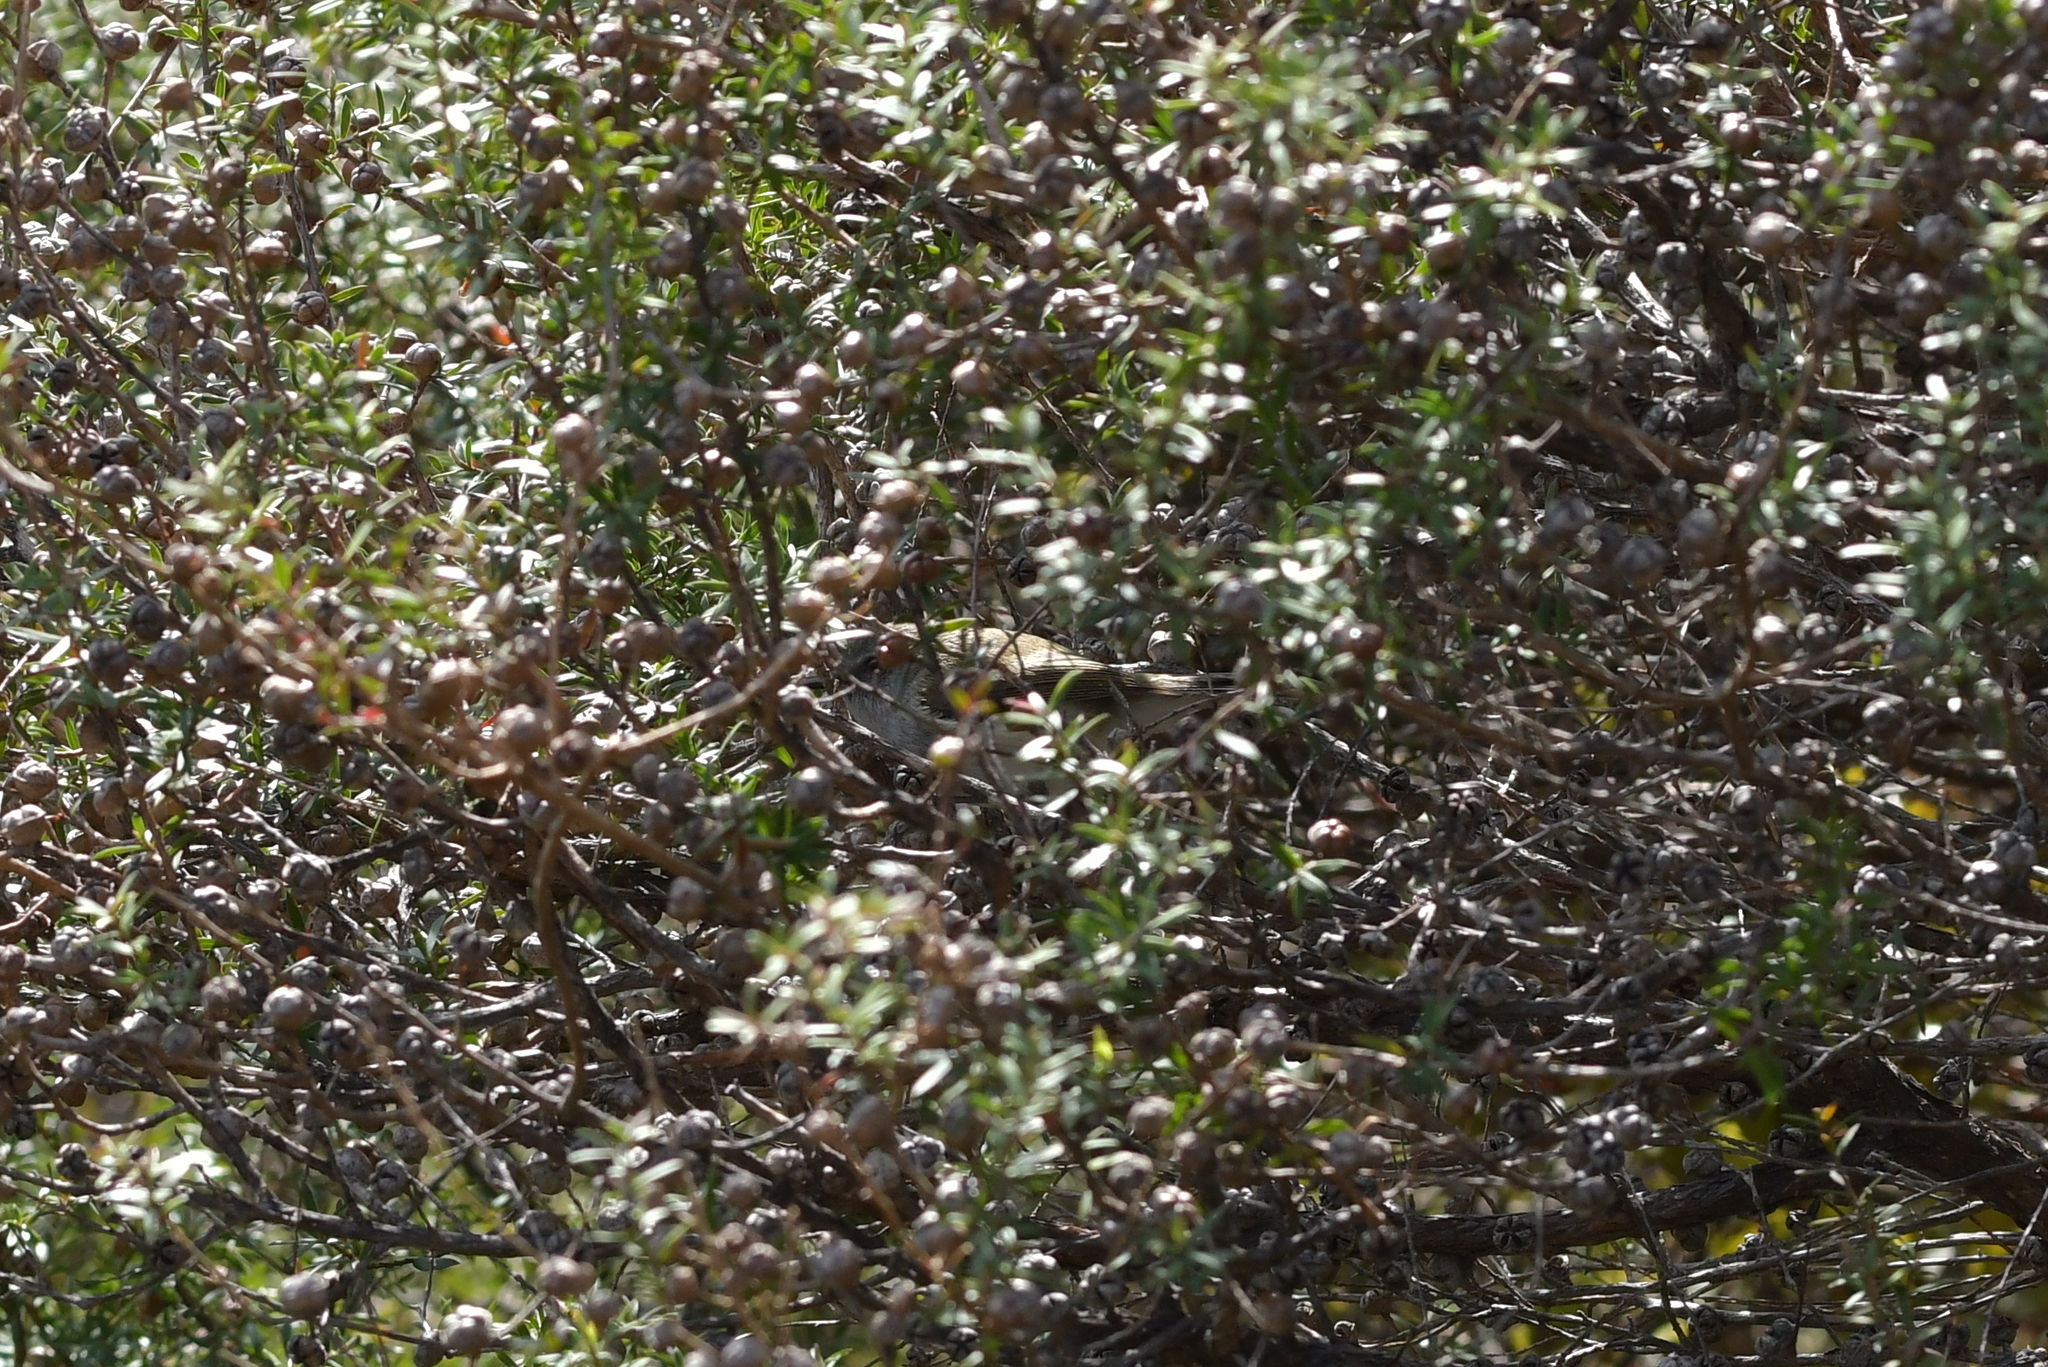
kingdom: Animalia
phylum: Chordata
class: Aves
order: Passeriformes
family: Acanthizidae
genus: Gerygone
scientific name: Gerygone igata
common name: Grey gerygone
